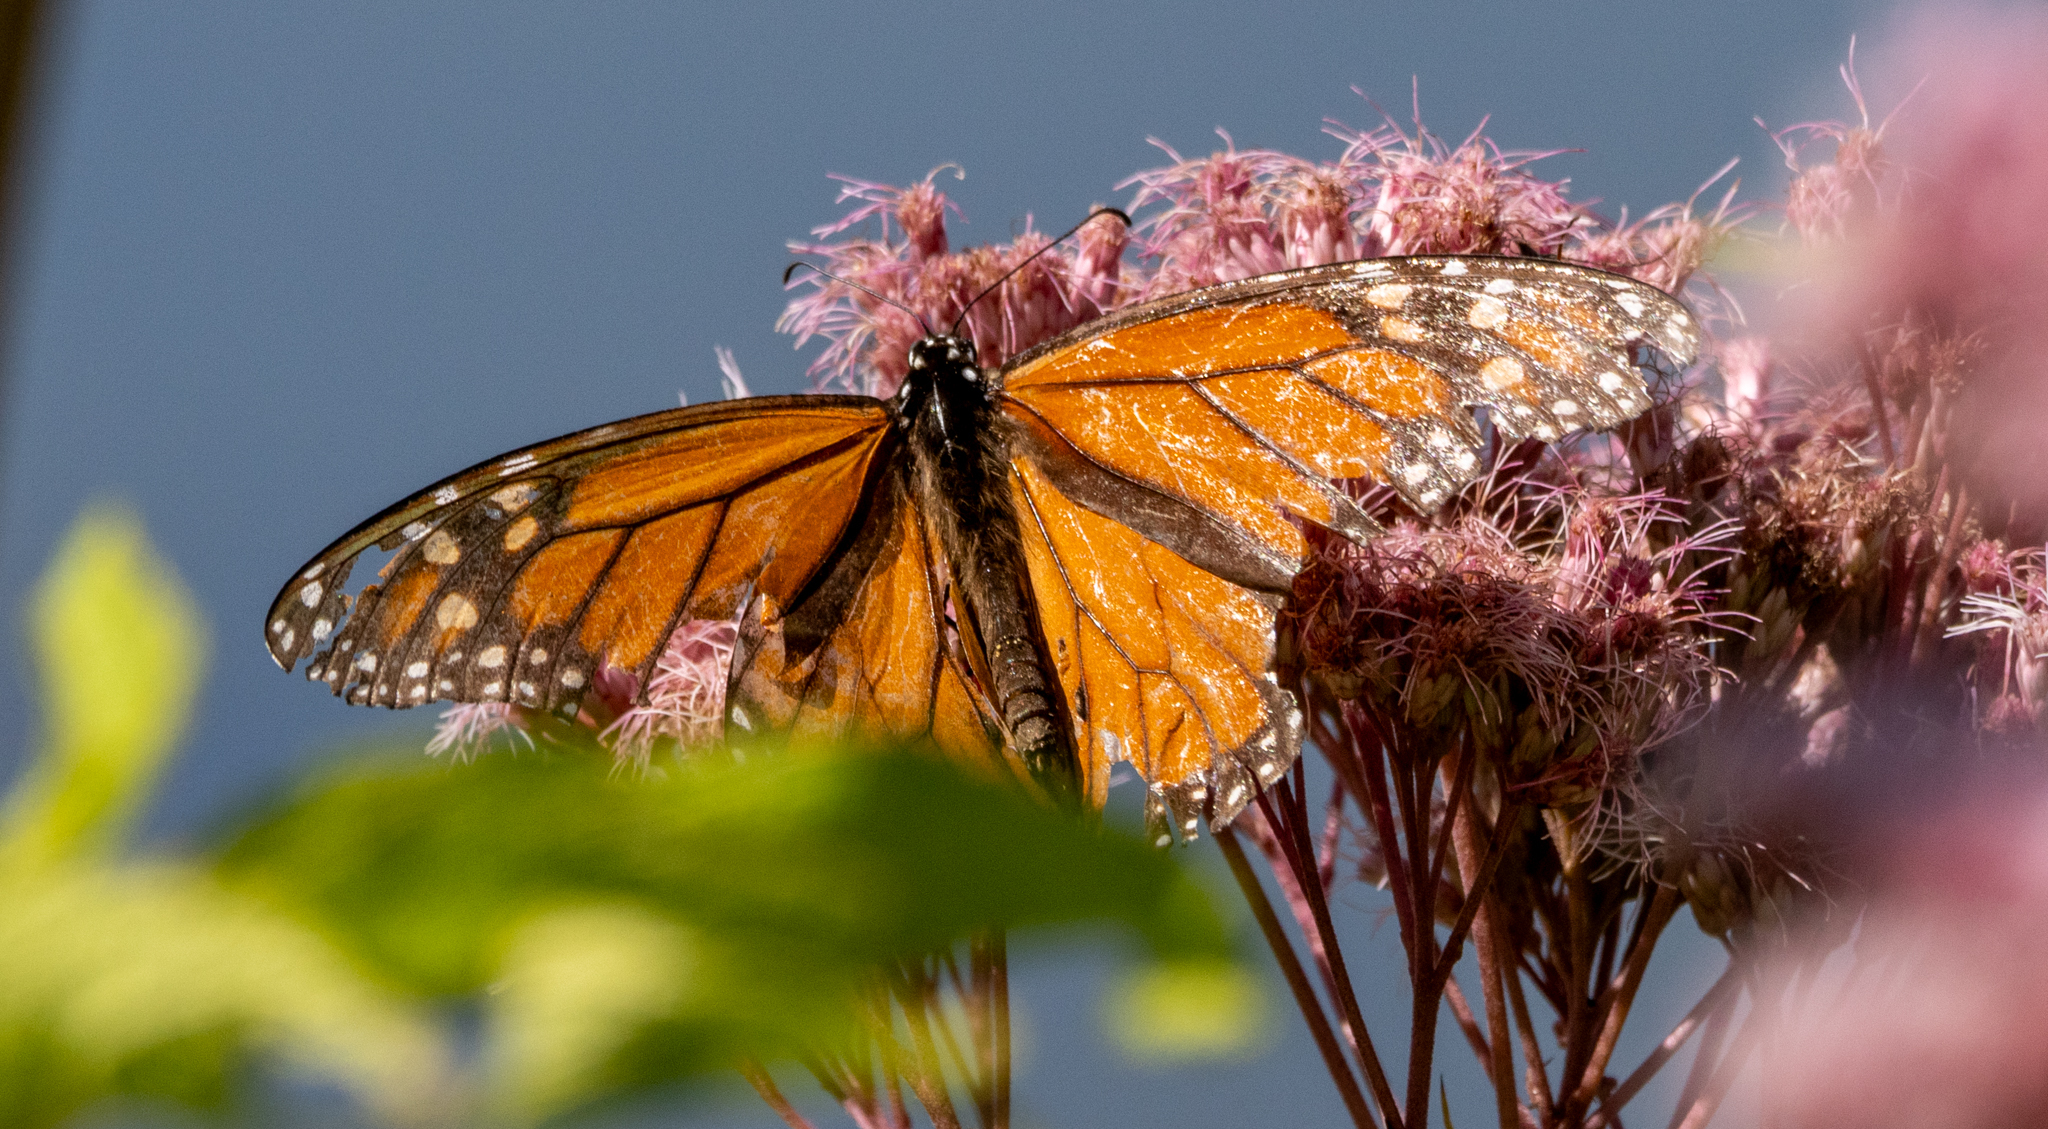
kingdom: Animalia
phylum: Arthropoda
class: Insecta
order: Lepidoptera
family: Nymphalidae
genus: Danaus
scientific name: Danaus plexippus
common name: Monarch
